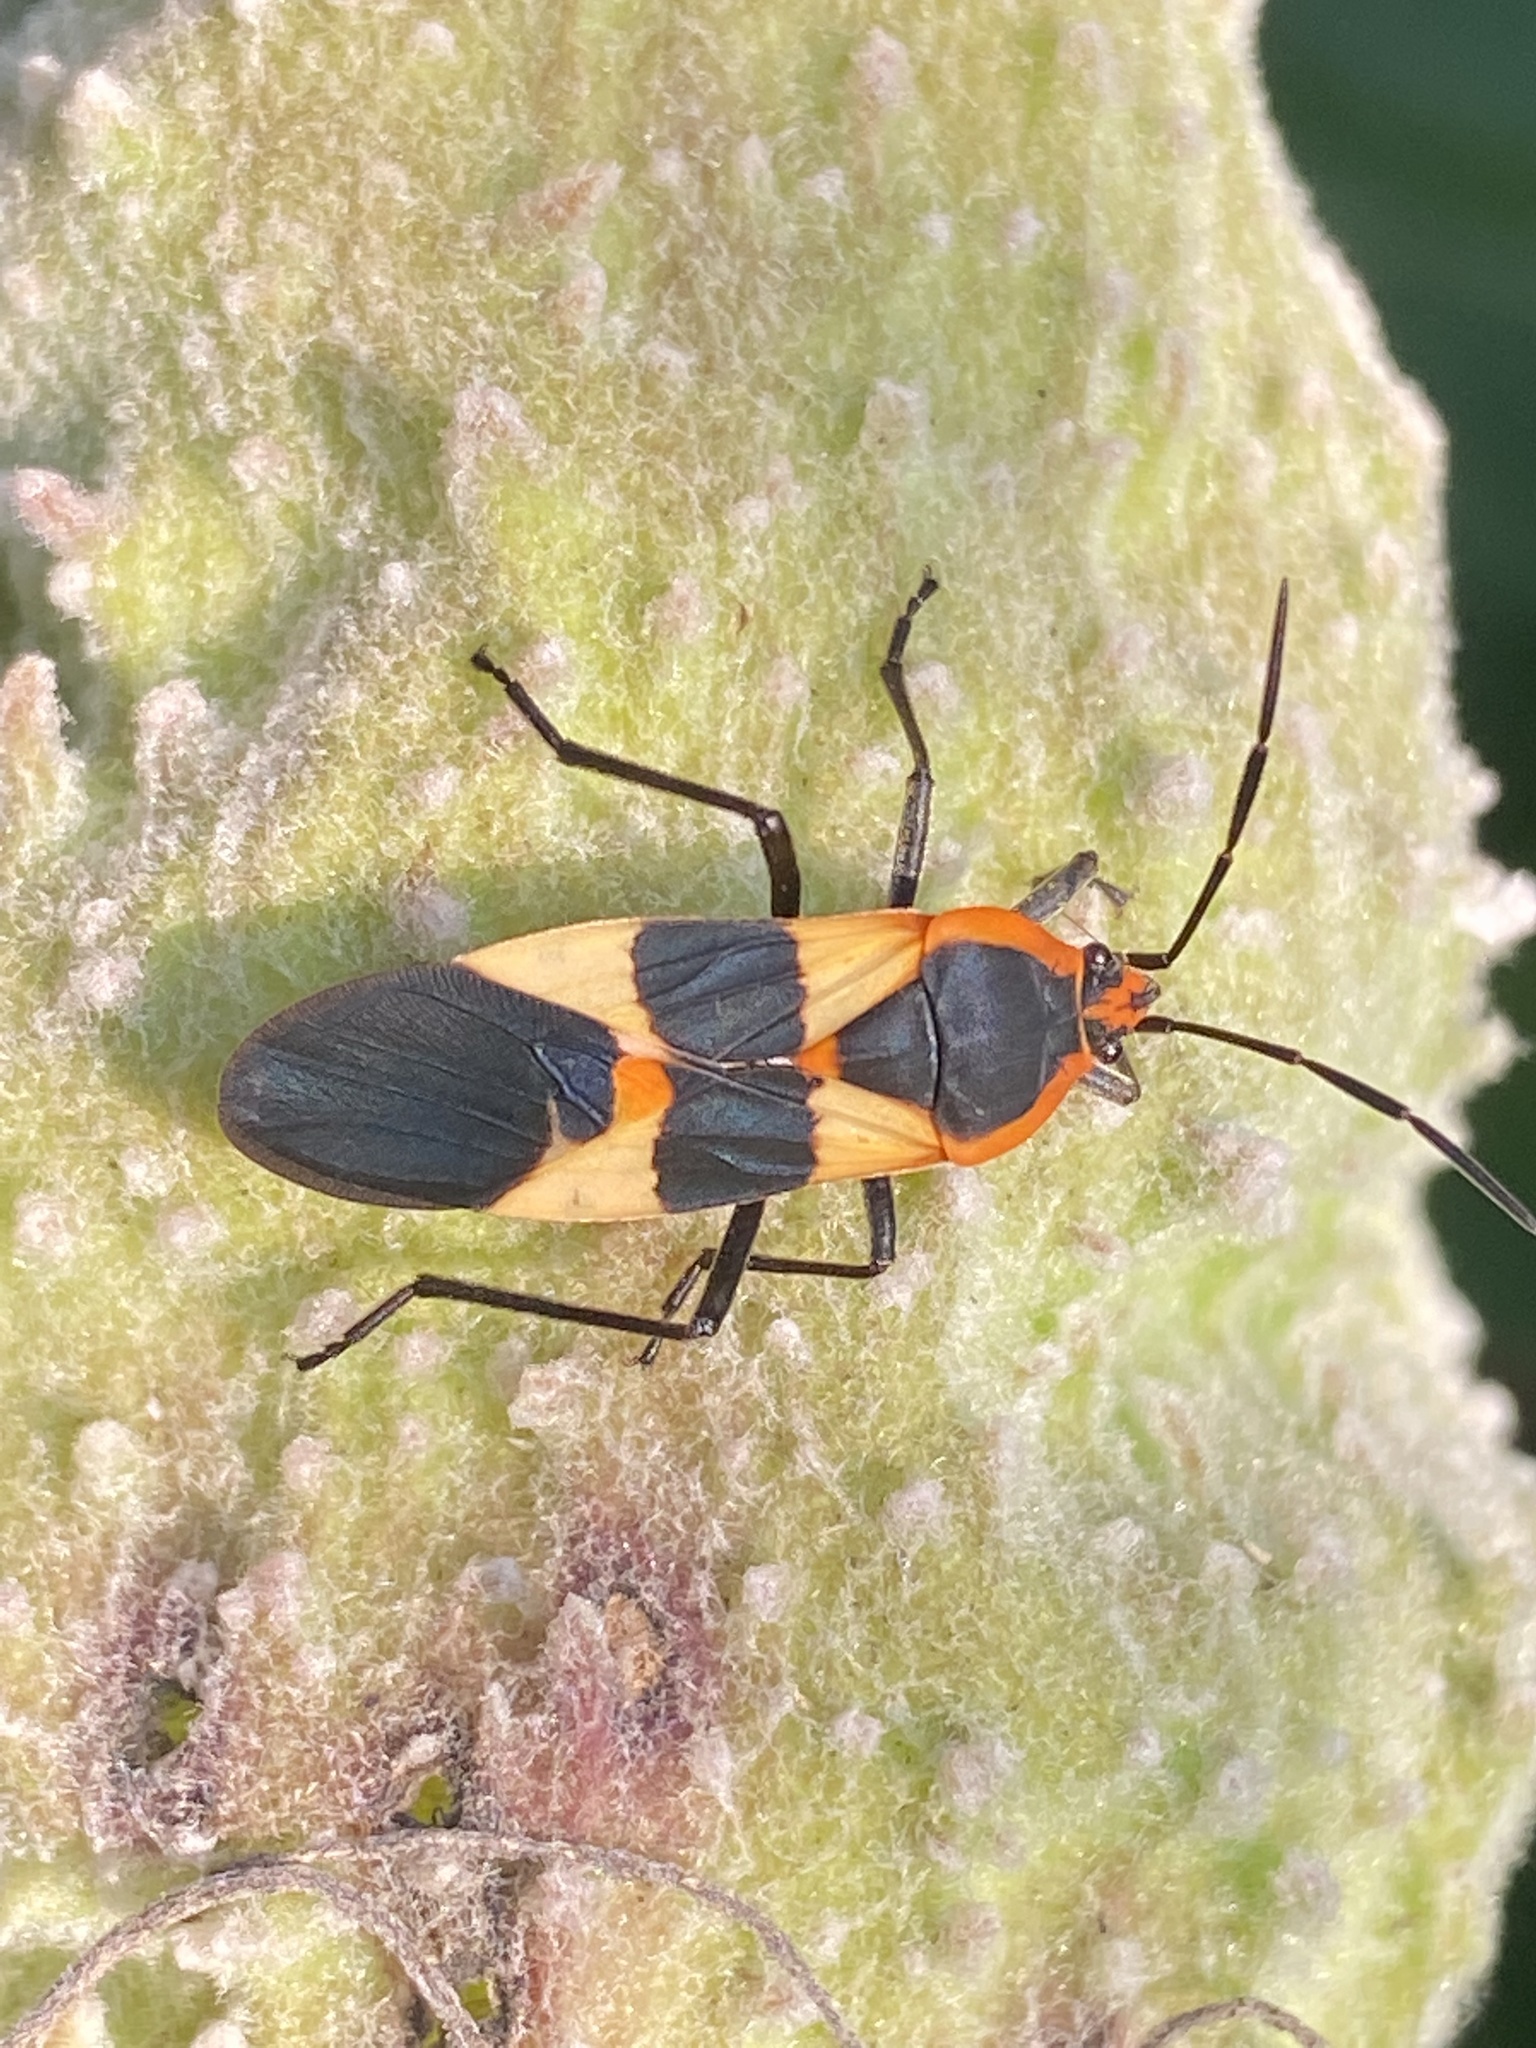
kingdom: Animalia
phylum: Arthropoda
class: Insecta
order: Hemiptera
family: Lygaeidae
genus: Oncopeltus
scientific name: Oncopeltus fasciatus
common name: Large milkweed bug
